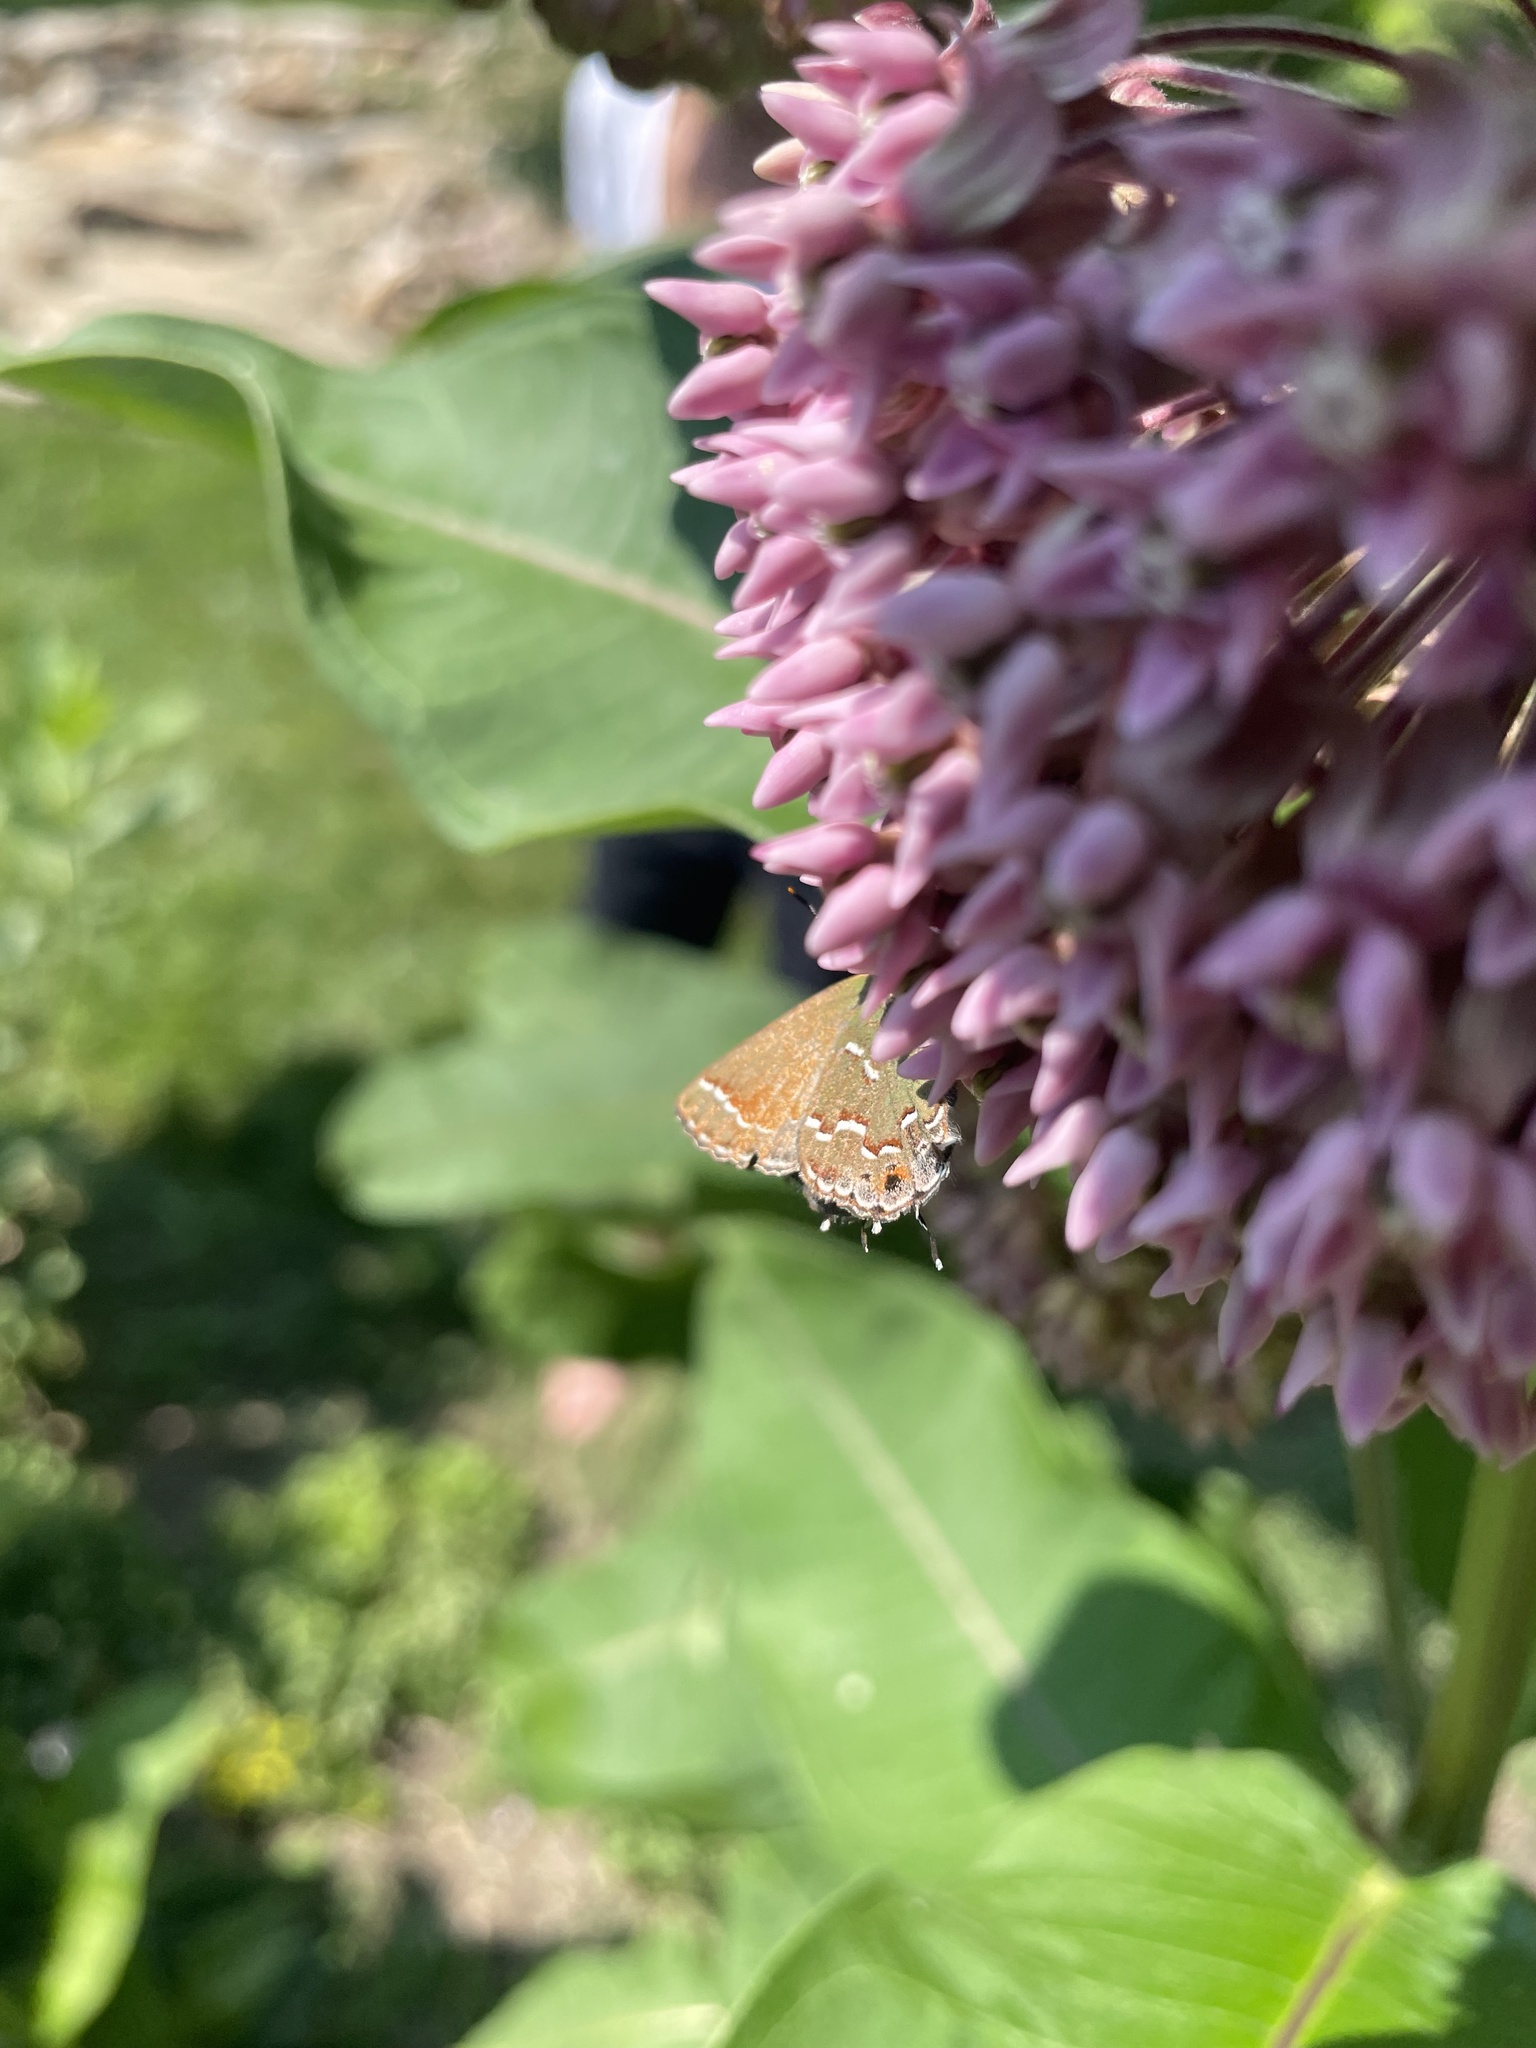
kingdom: Animalia
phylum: Arthropoda
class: Insecta
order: Lepidoptera
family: Lycaenidae
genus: Mitoura
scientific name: Mitoura gryneus
